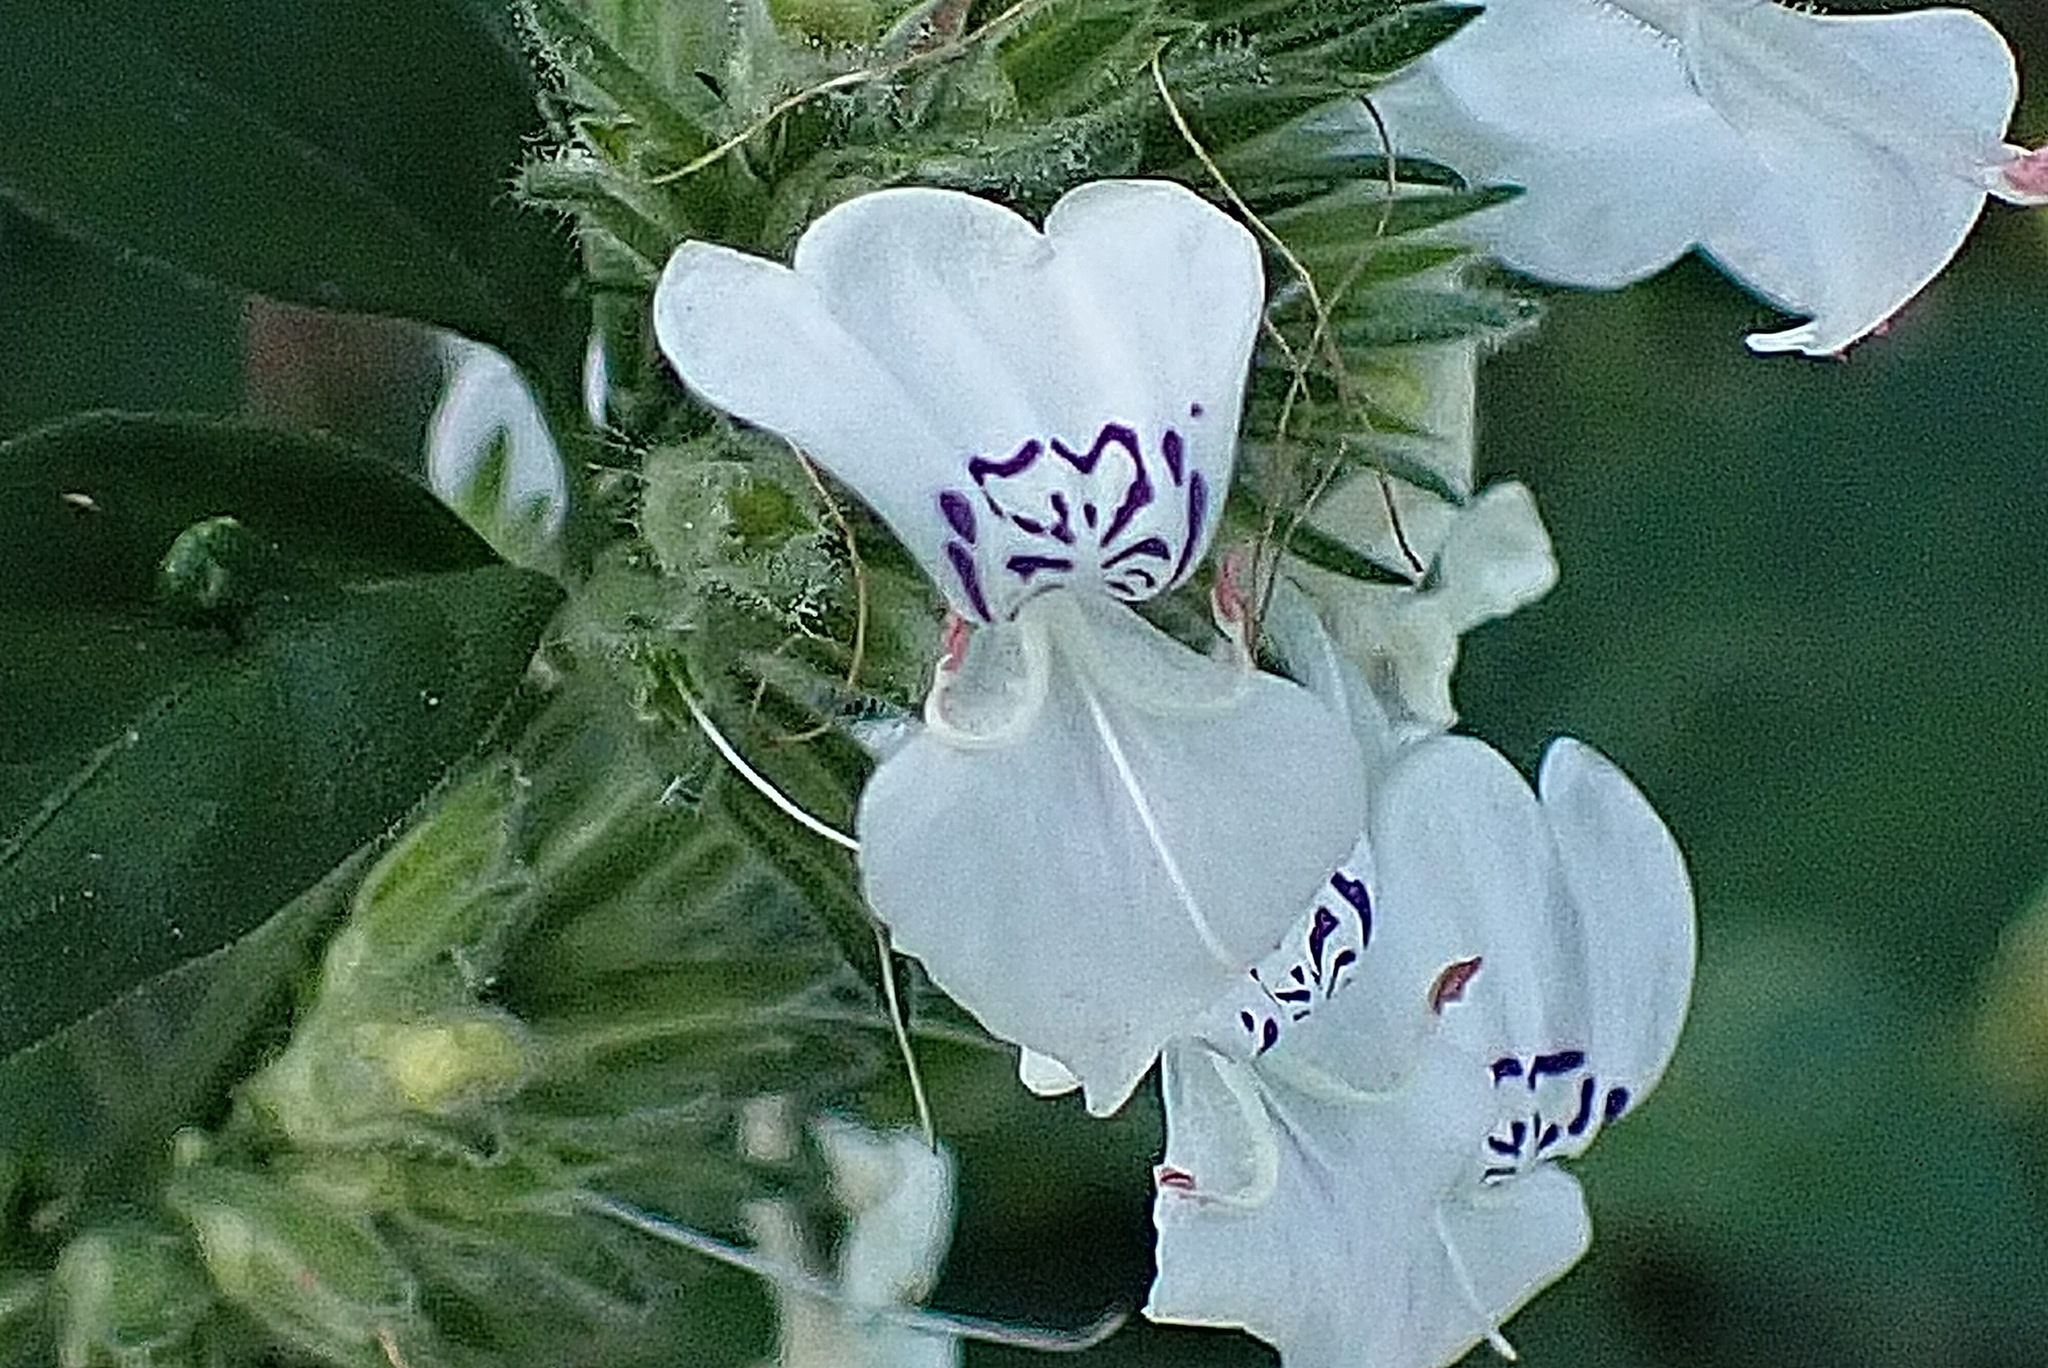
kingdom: Plantae
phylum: Tracheophyta
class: Magnoliopsida
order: Lamiales
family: Acanthaceae
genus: Hypoestes
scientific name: Hypoestes forskaolii
